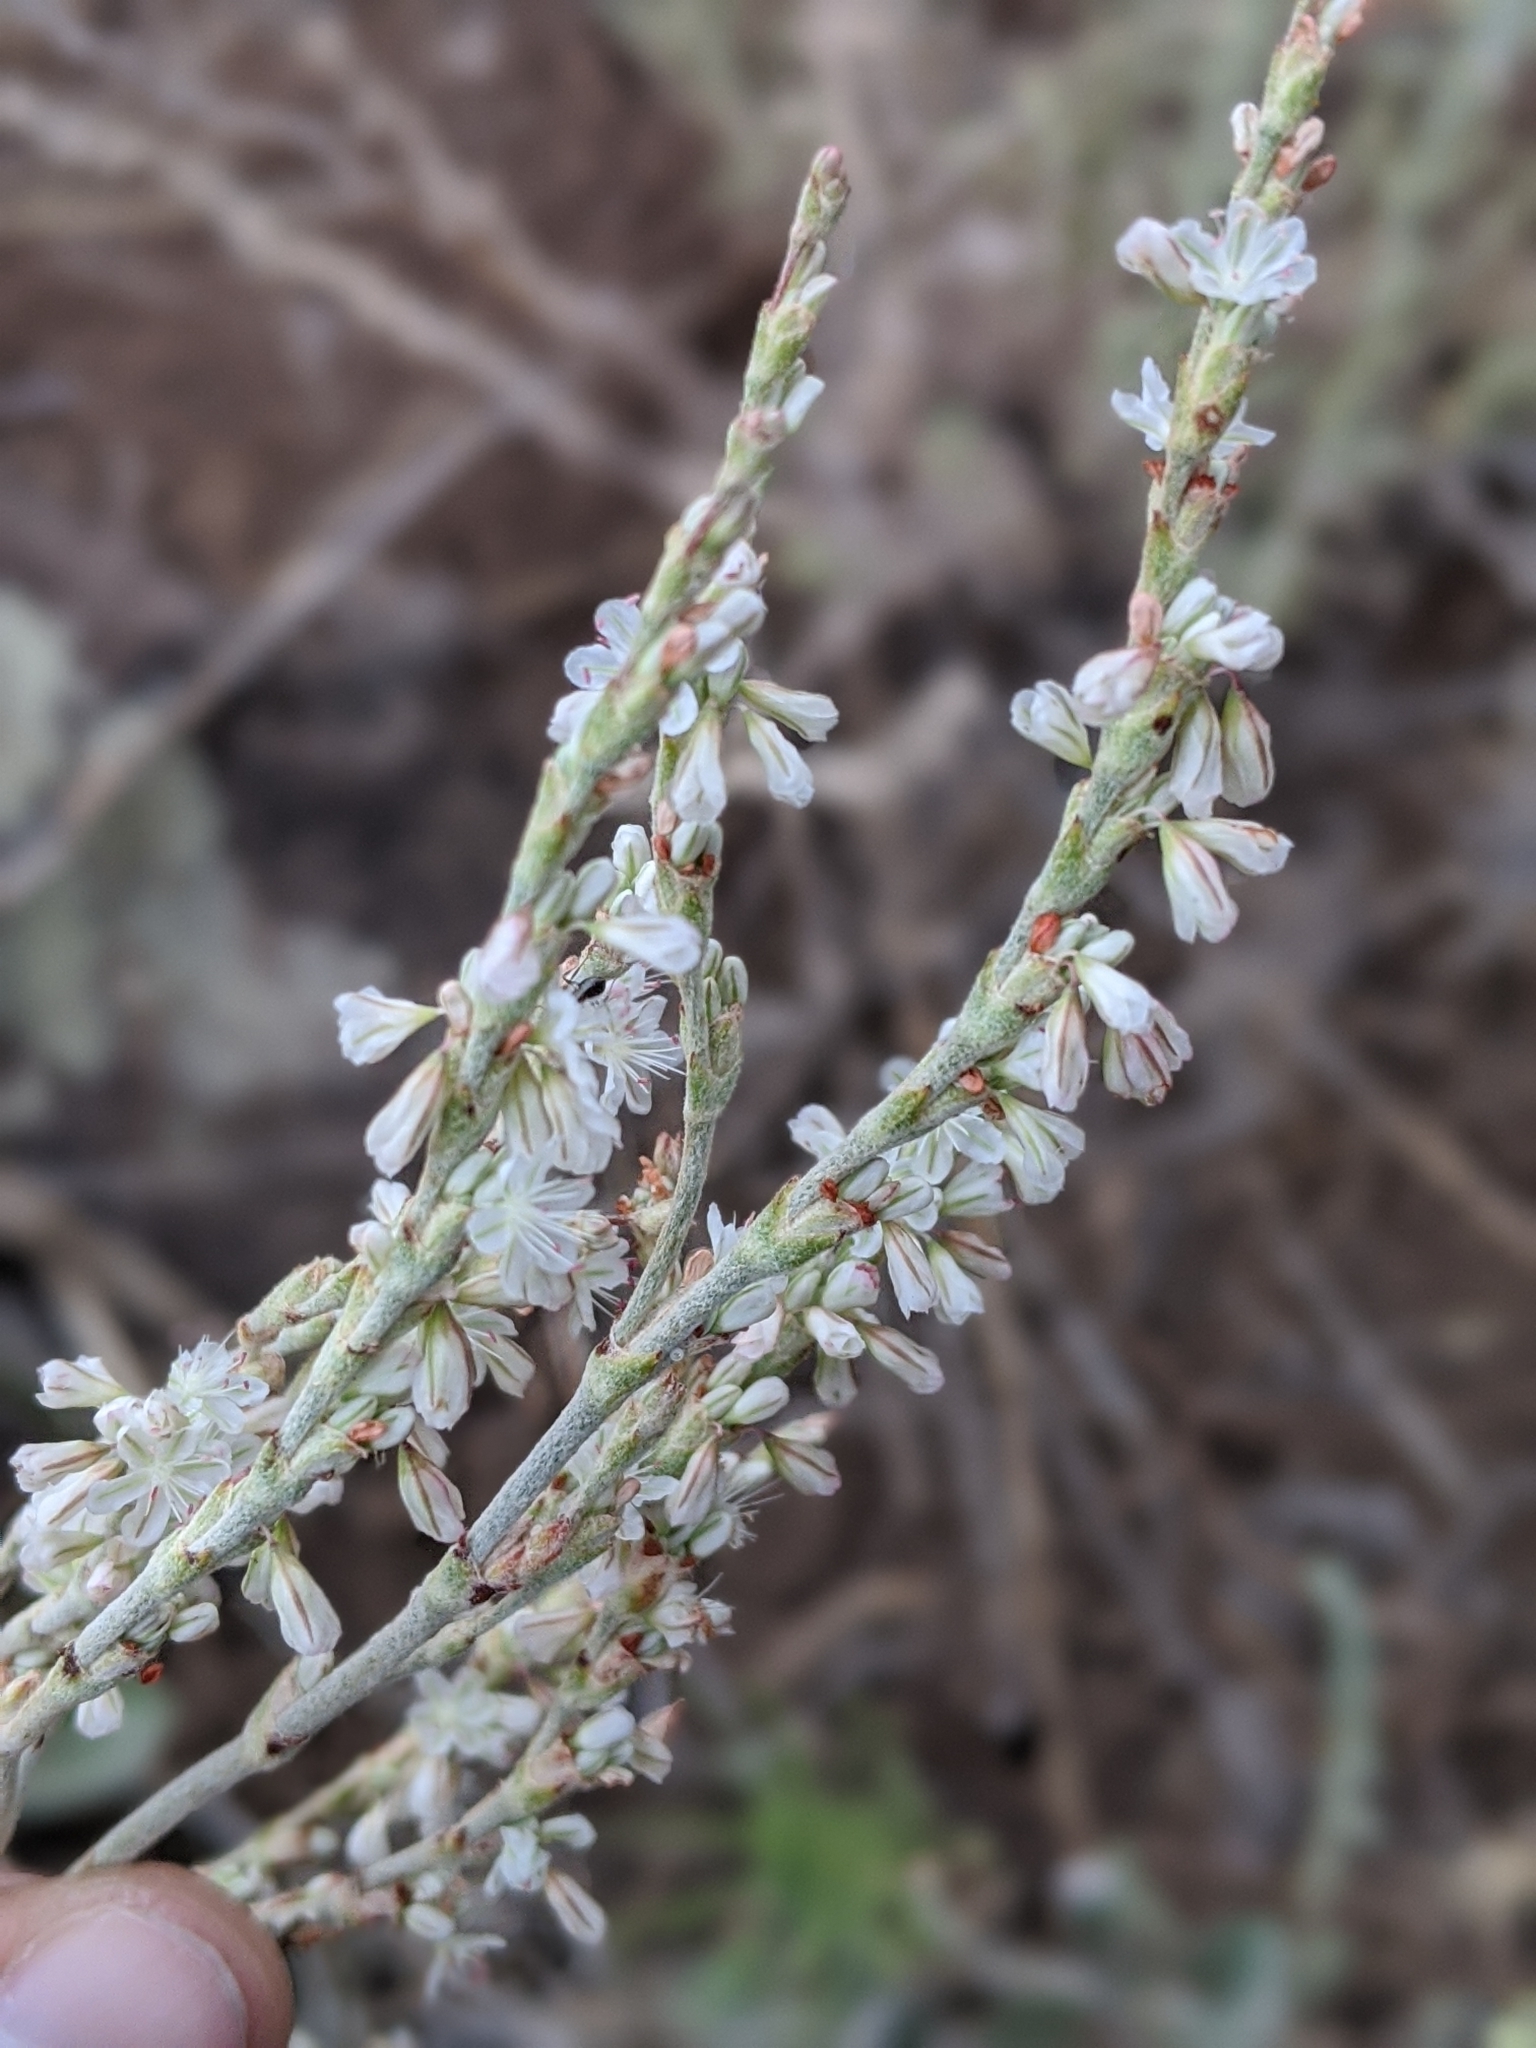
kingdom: Plantae
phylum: Tracheophyta
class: Magnoliopsida
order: Caryophyllales
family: Polygonaceae
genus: Eriogonum
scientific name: Eriogonum racemosum
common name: Redroot wild buckwheat
